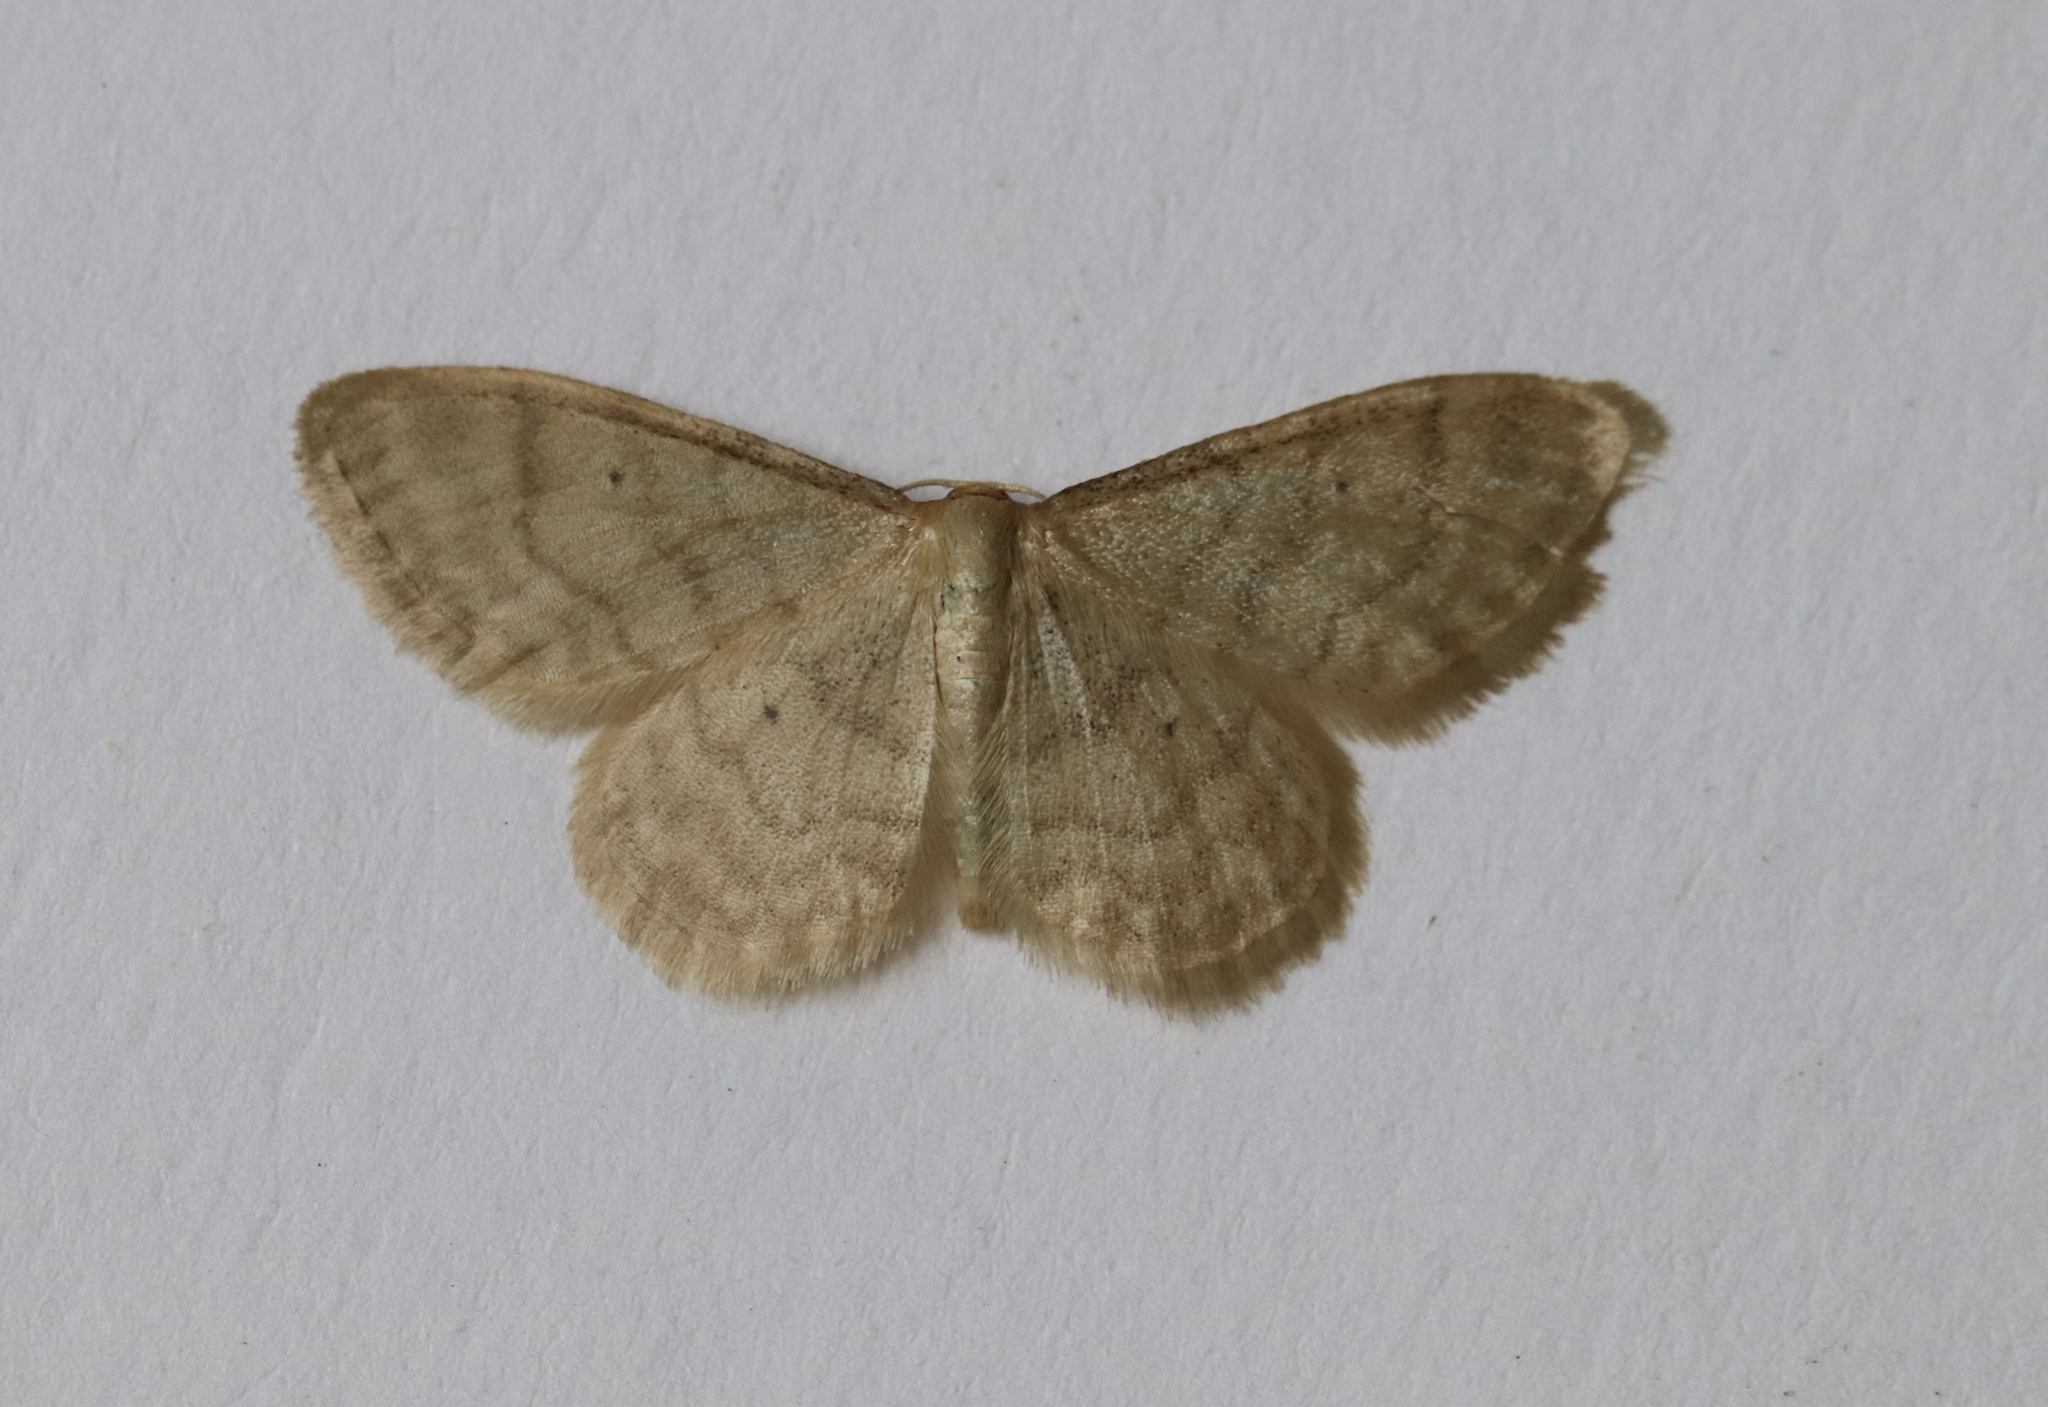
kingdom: Animalia
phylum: Arthropoda
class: Insecta
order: Lepidoptera
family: Geometridae
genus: Idaea
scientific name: Idaea dilutaria
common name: Silky wave
